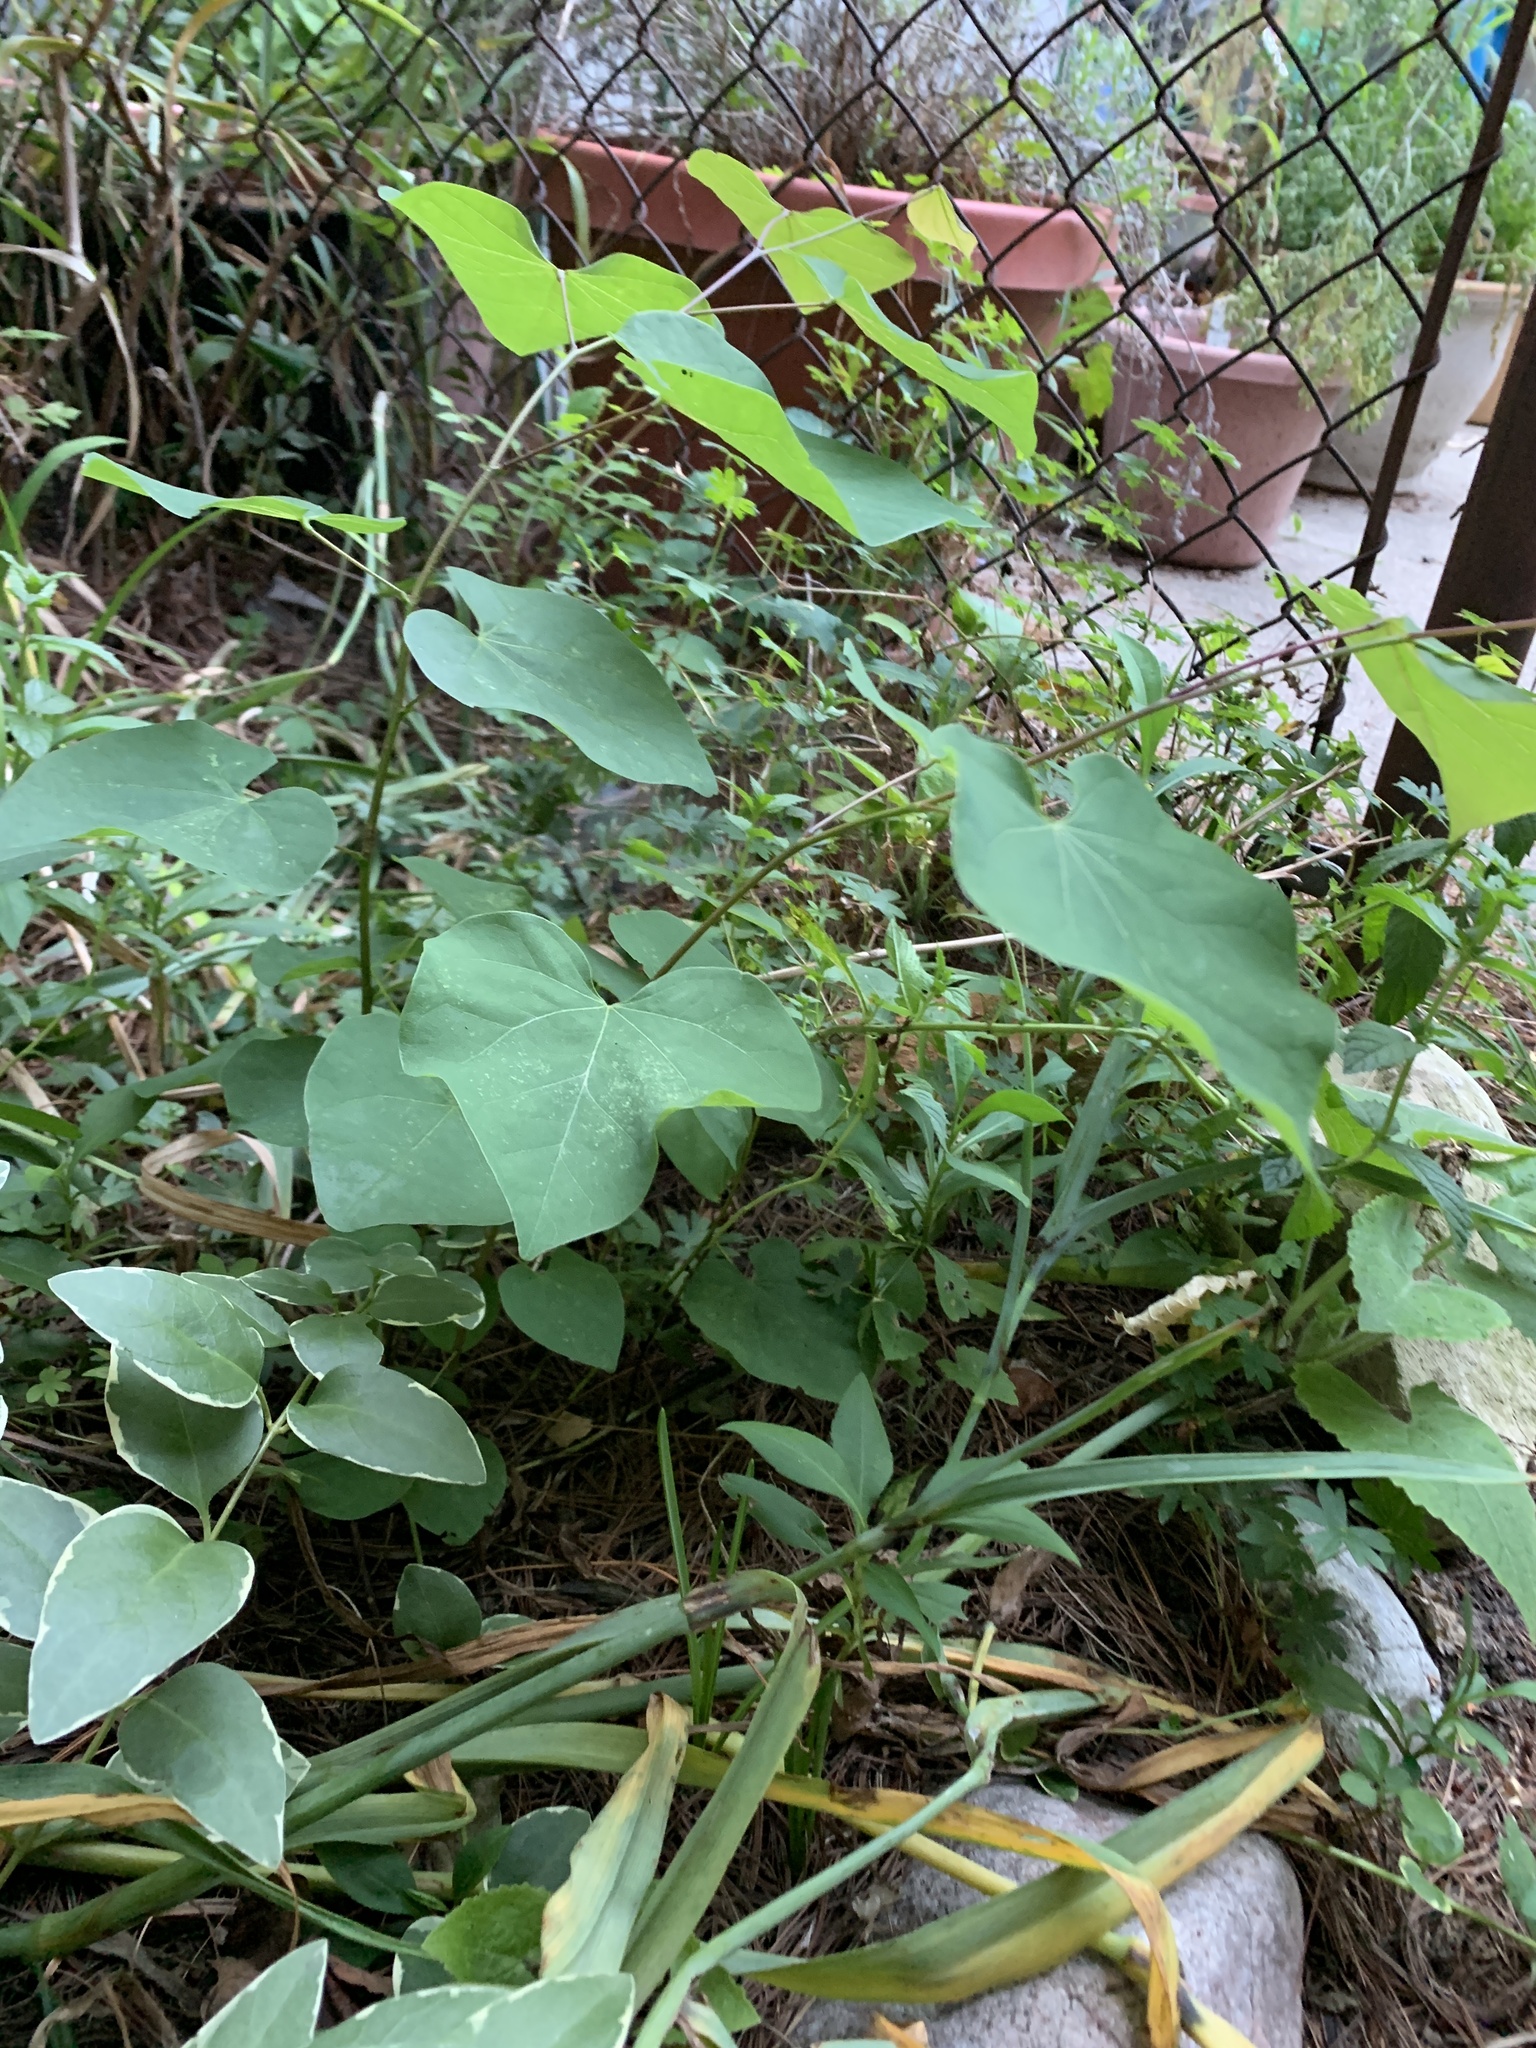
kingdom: Plantae
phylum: Tracheophyta
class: Magnoliopsida
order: Fabales
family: Fabaceae
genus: Cercis
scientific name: Cercis canadensis
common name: Eastern redbud
